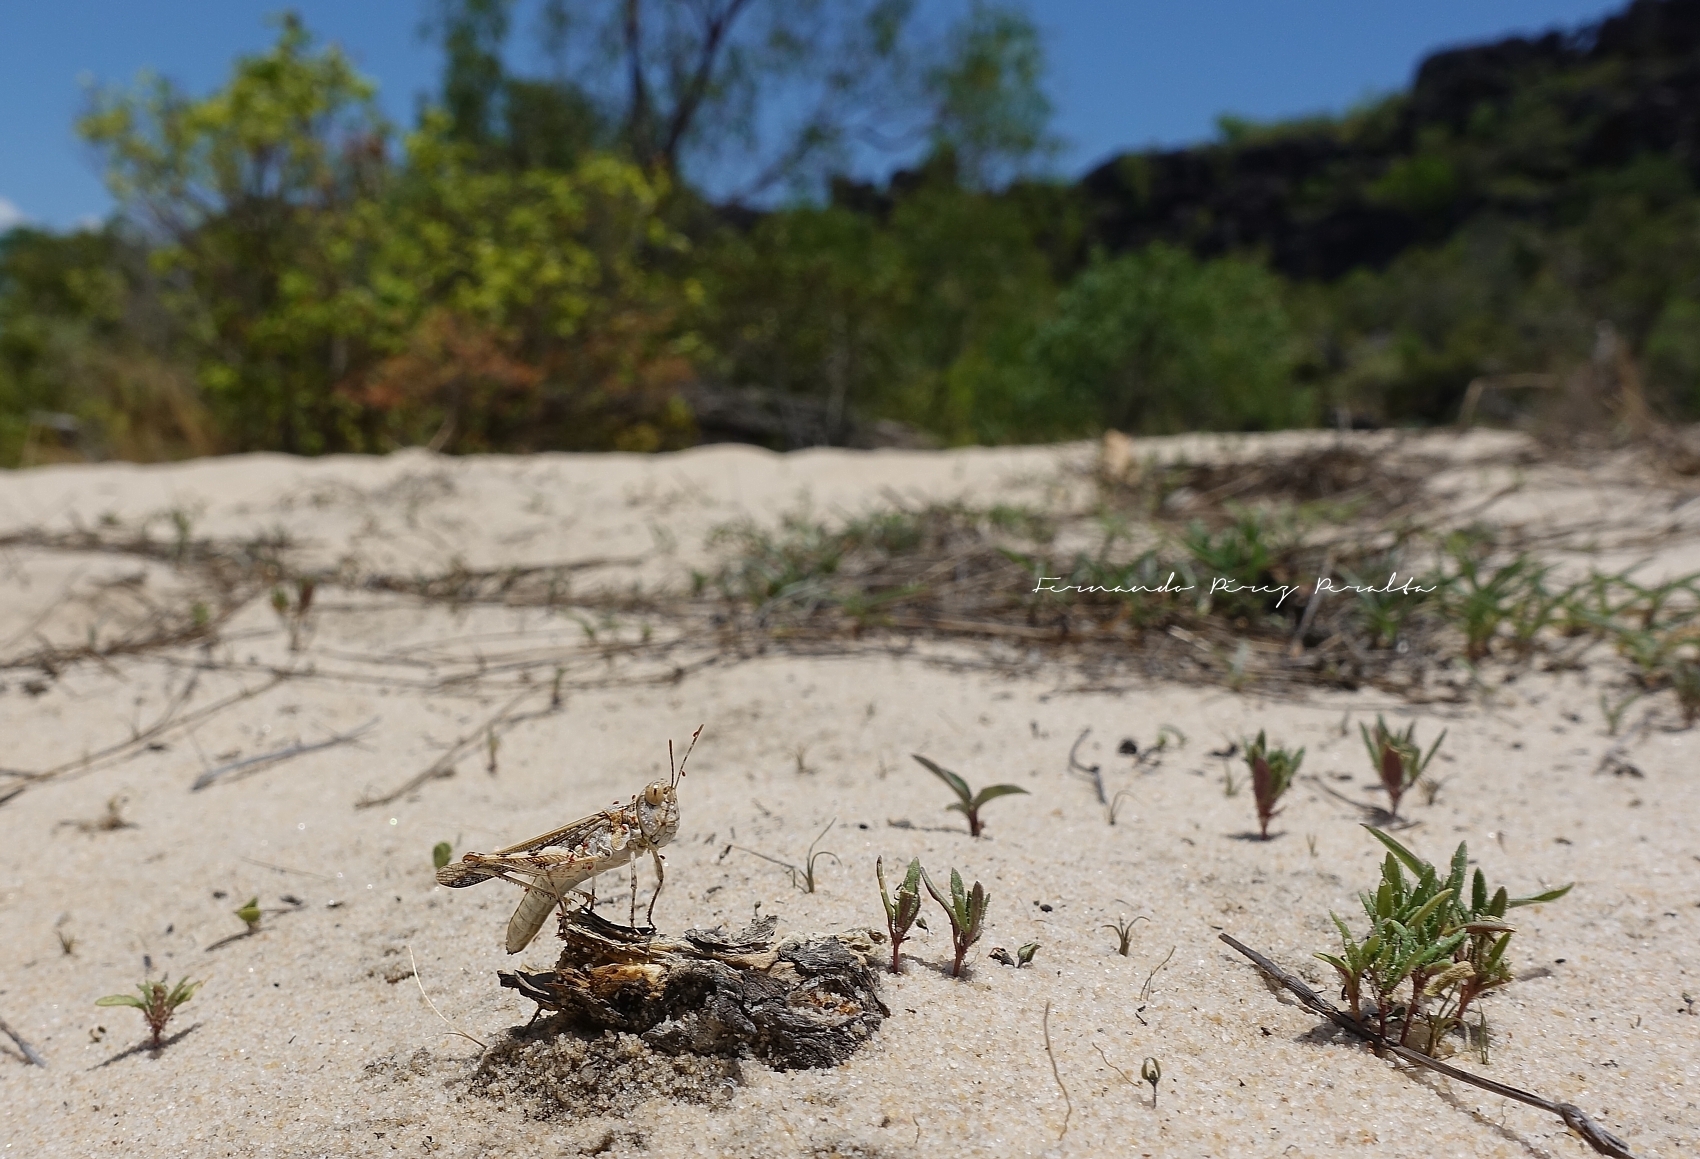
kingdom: Animalia
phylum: Arthropoda
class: Insecta
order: Orthoptera
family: Acrididae
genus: Pycnostictus
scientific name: Pycnostictus seriatus
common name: Common bandwing
